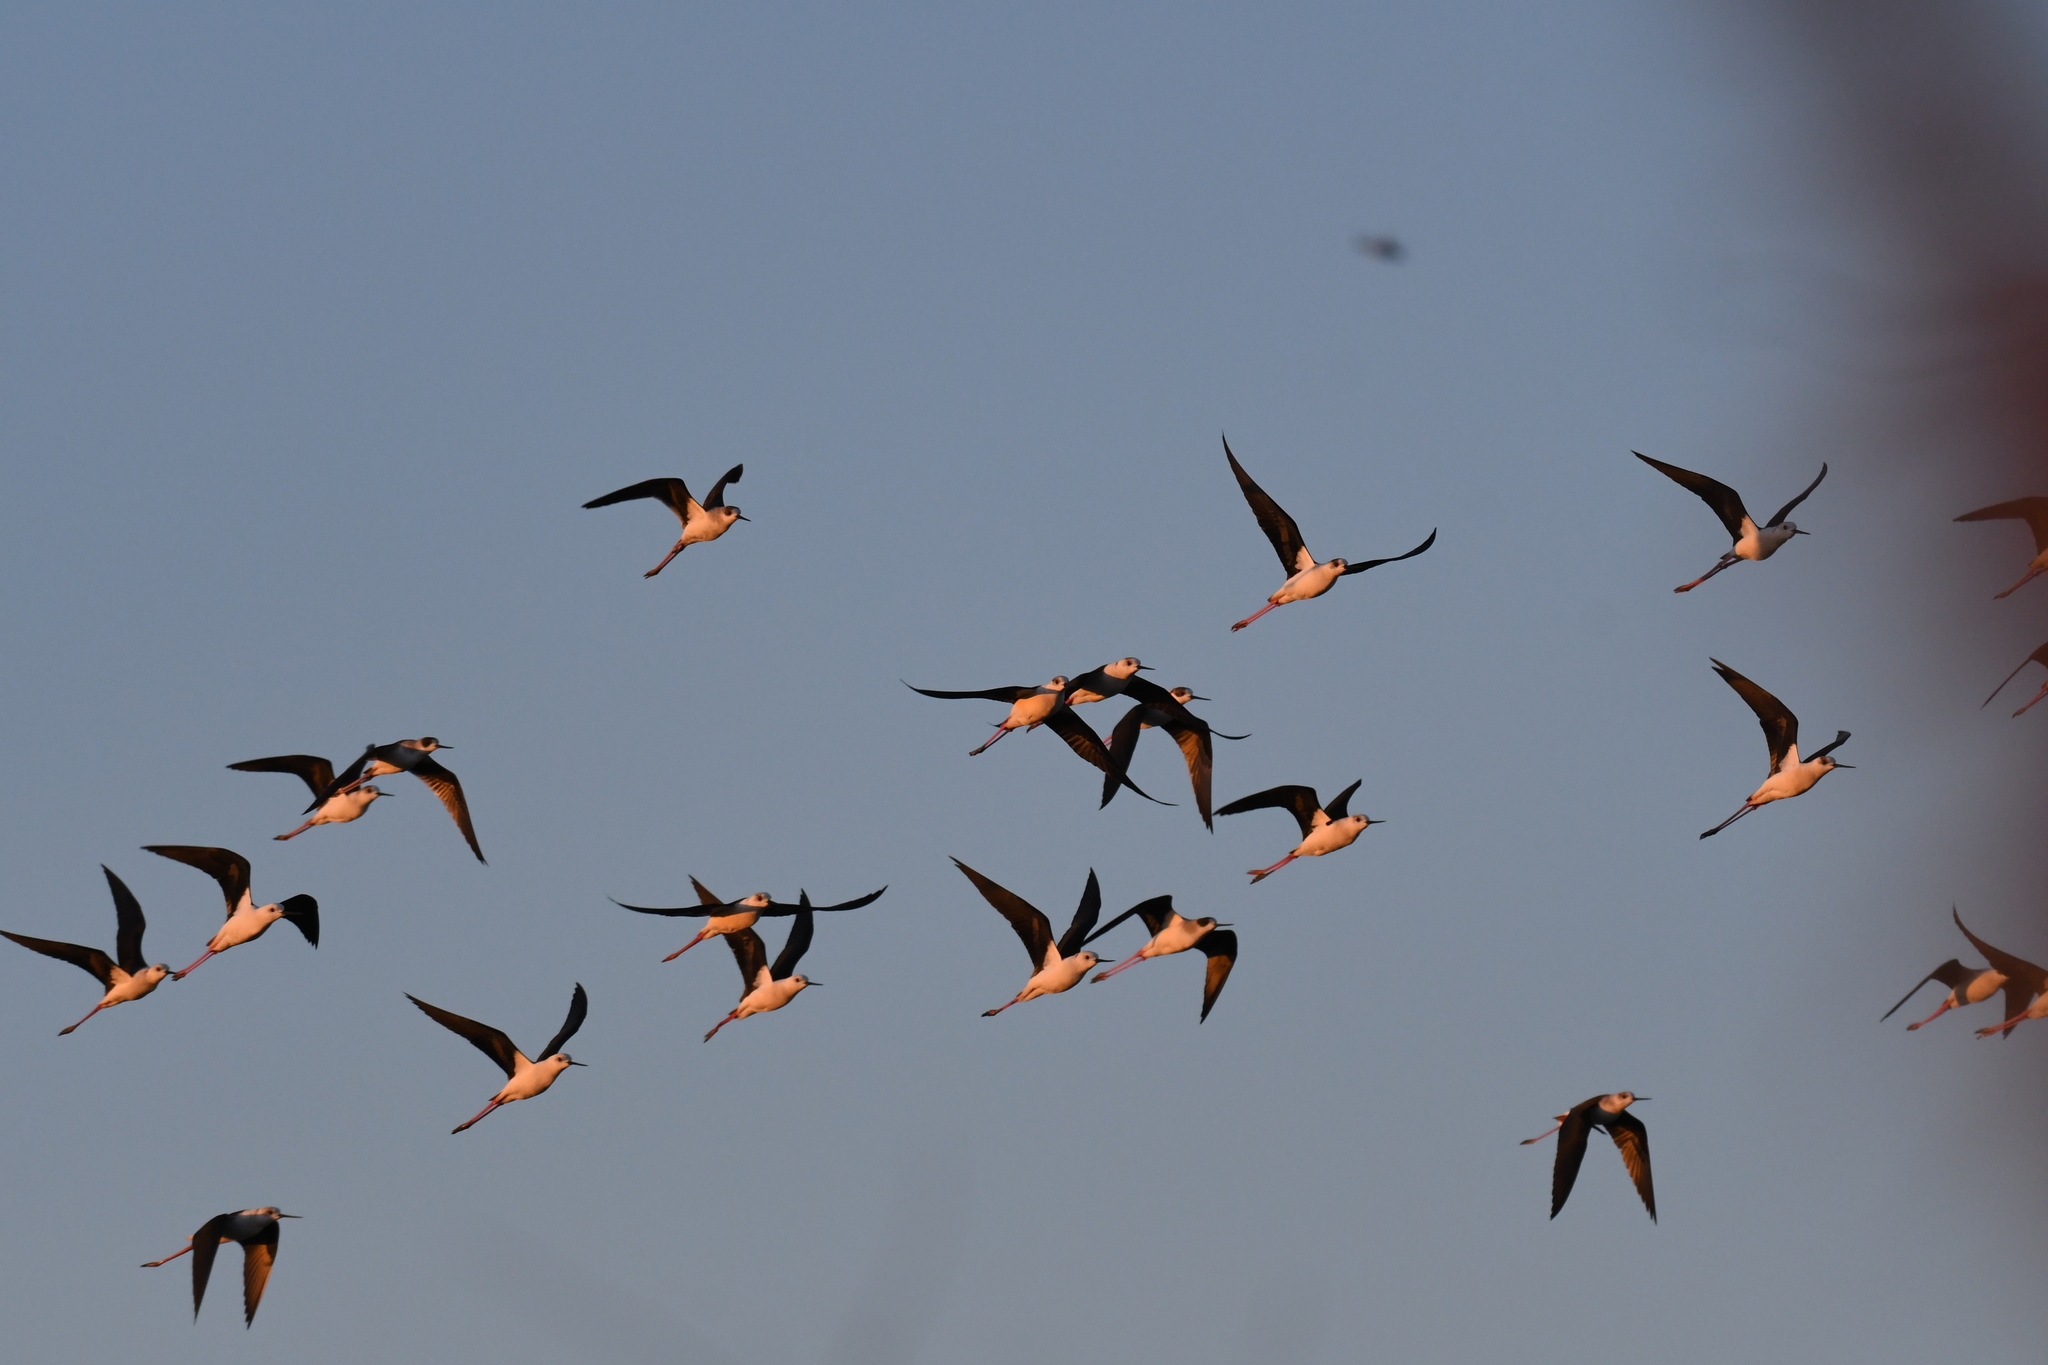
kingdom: Animalia
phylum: Chordata
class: Aves
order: Charadriiformes
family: Recurvirostridae
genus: Himantopus
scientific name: Himantopus himantopus
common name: Black-winged stilt
